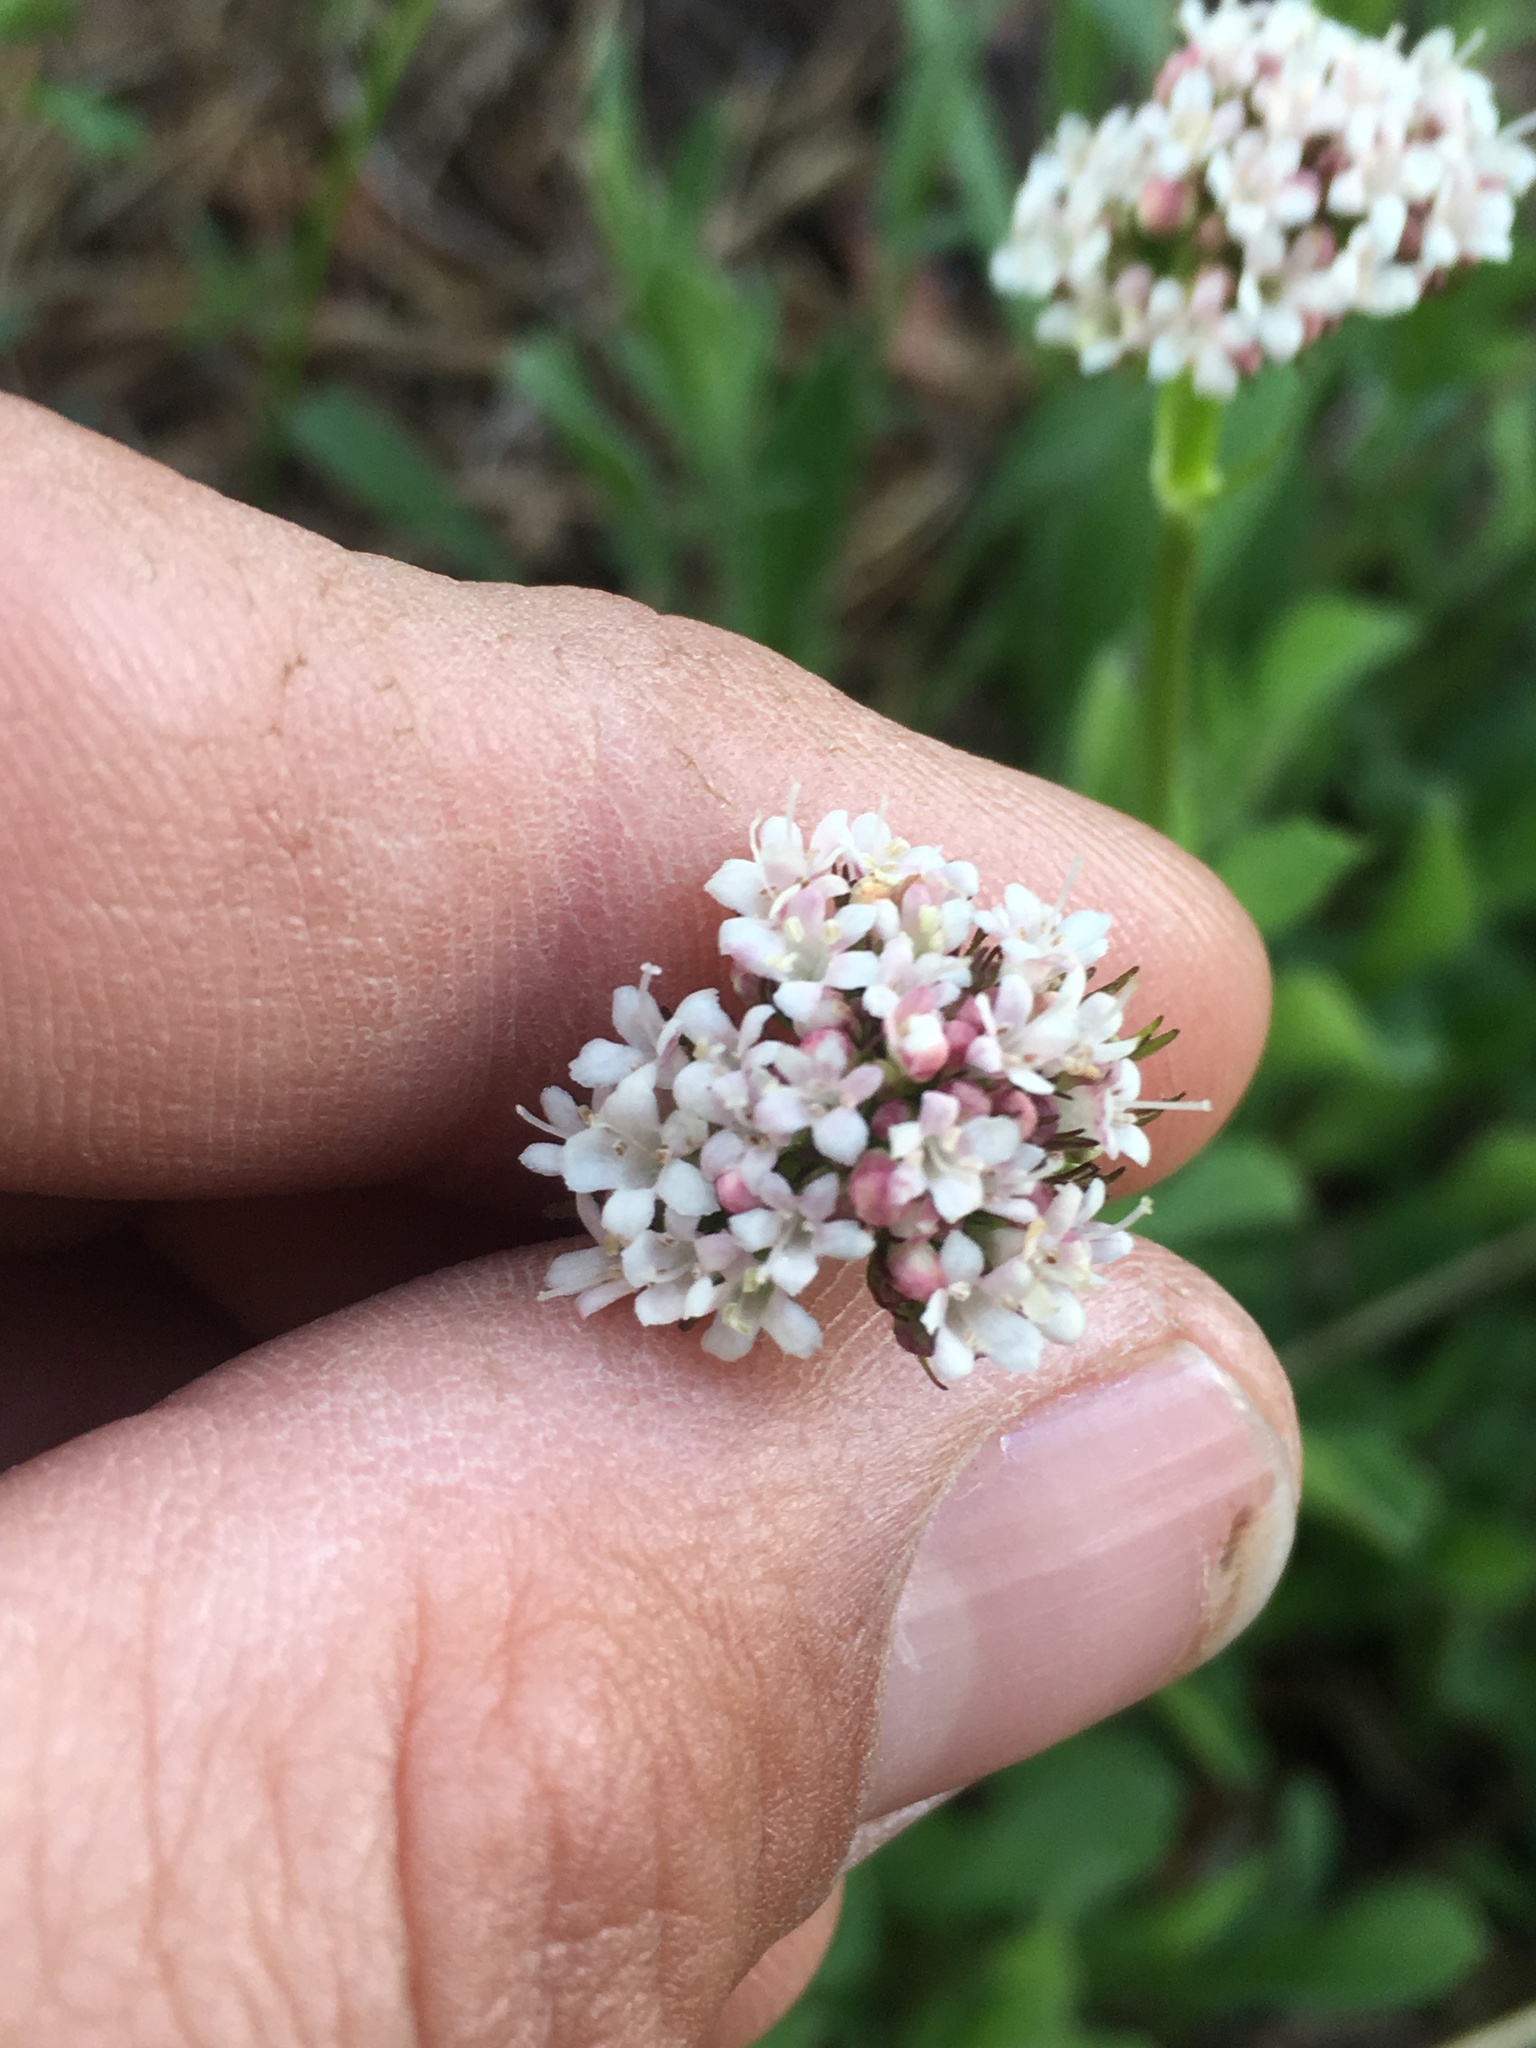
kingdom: Plantae
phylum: Tracheophyta
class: Magnoliopsida
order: Dipsacales
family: Caprifoliaceae
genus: Valeriana
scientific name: Valeriana californica
